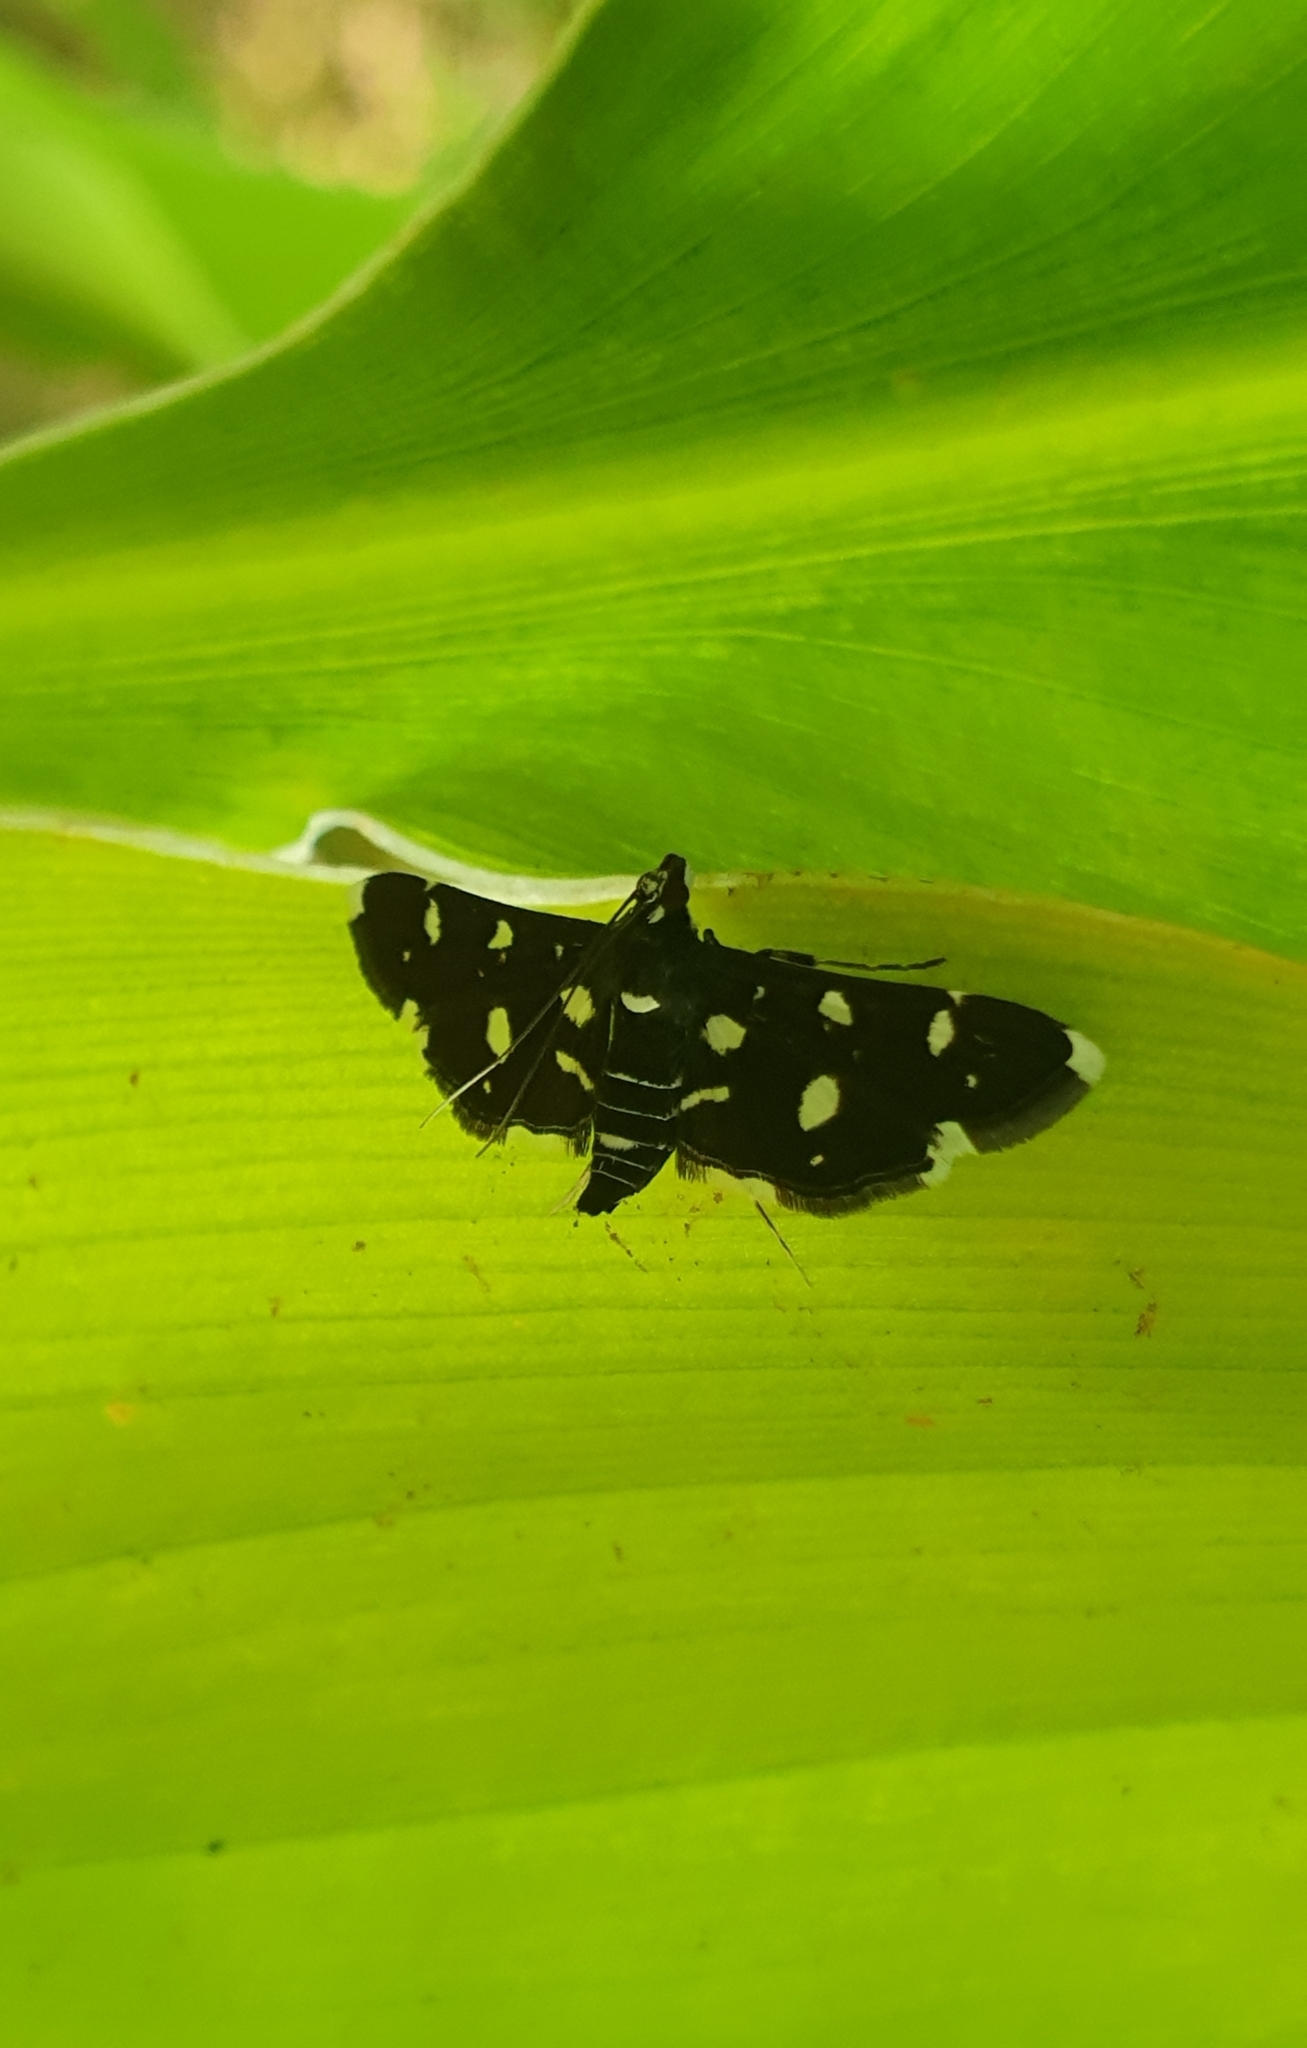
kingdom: Animalia
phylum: Arthropoda
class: Insecta
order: Lepidoptera
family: Crambidae
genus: Bocchoris
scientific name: Bocchoris inspersalis
